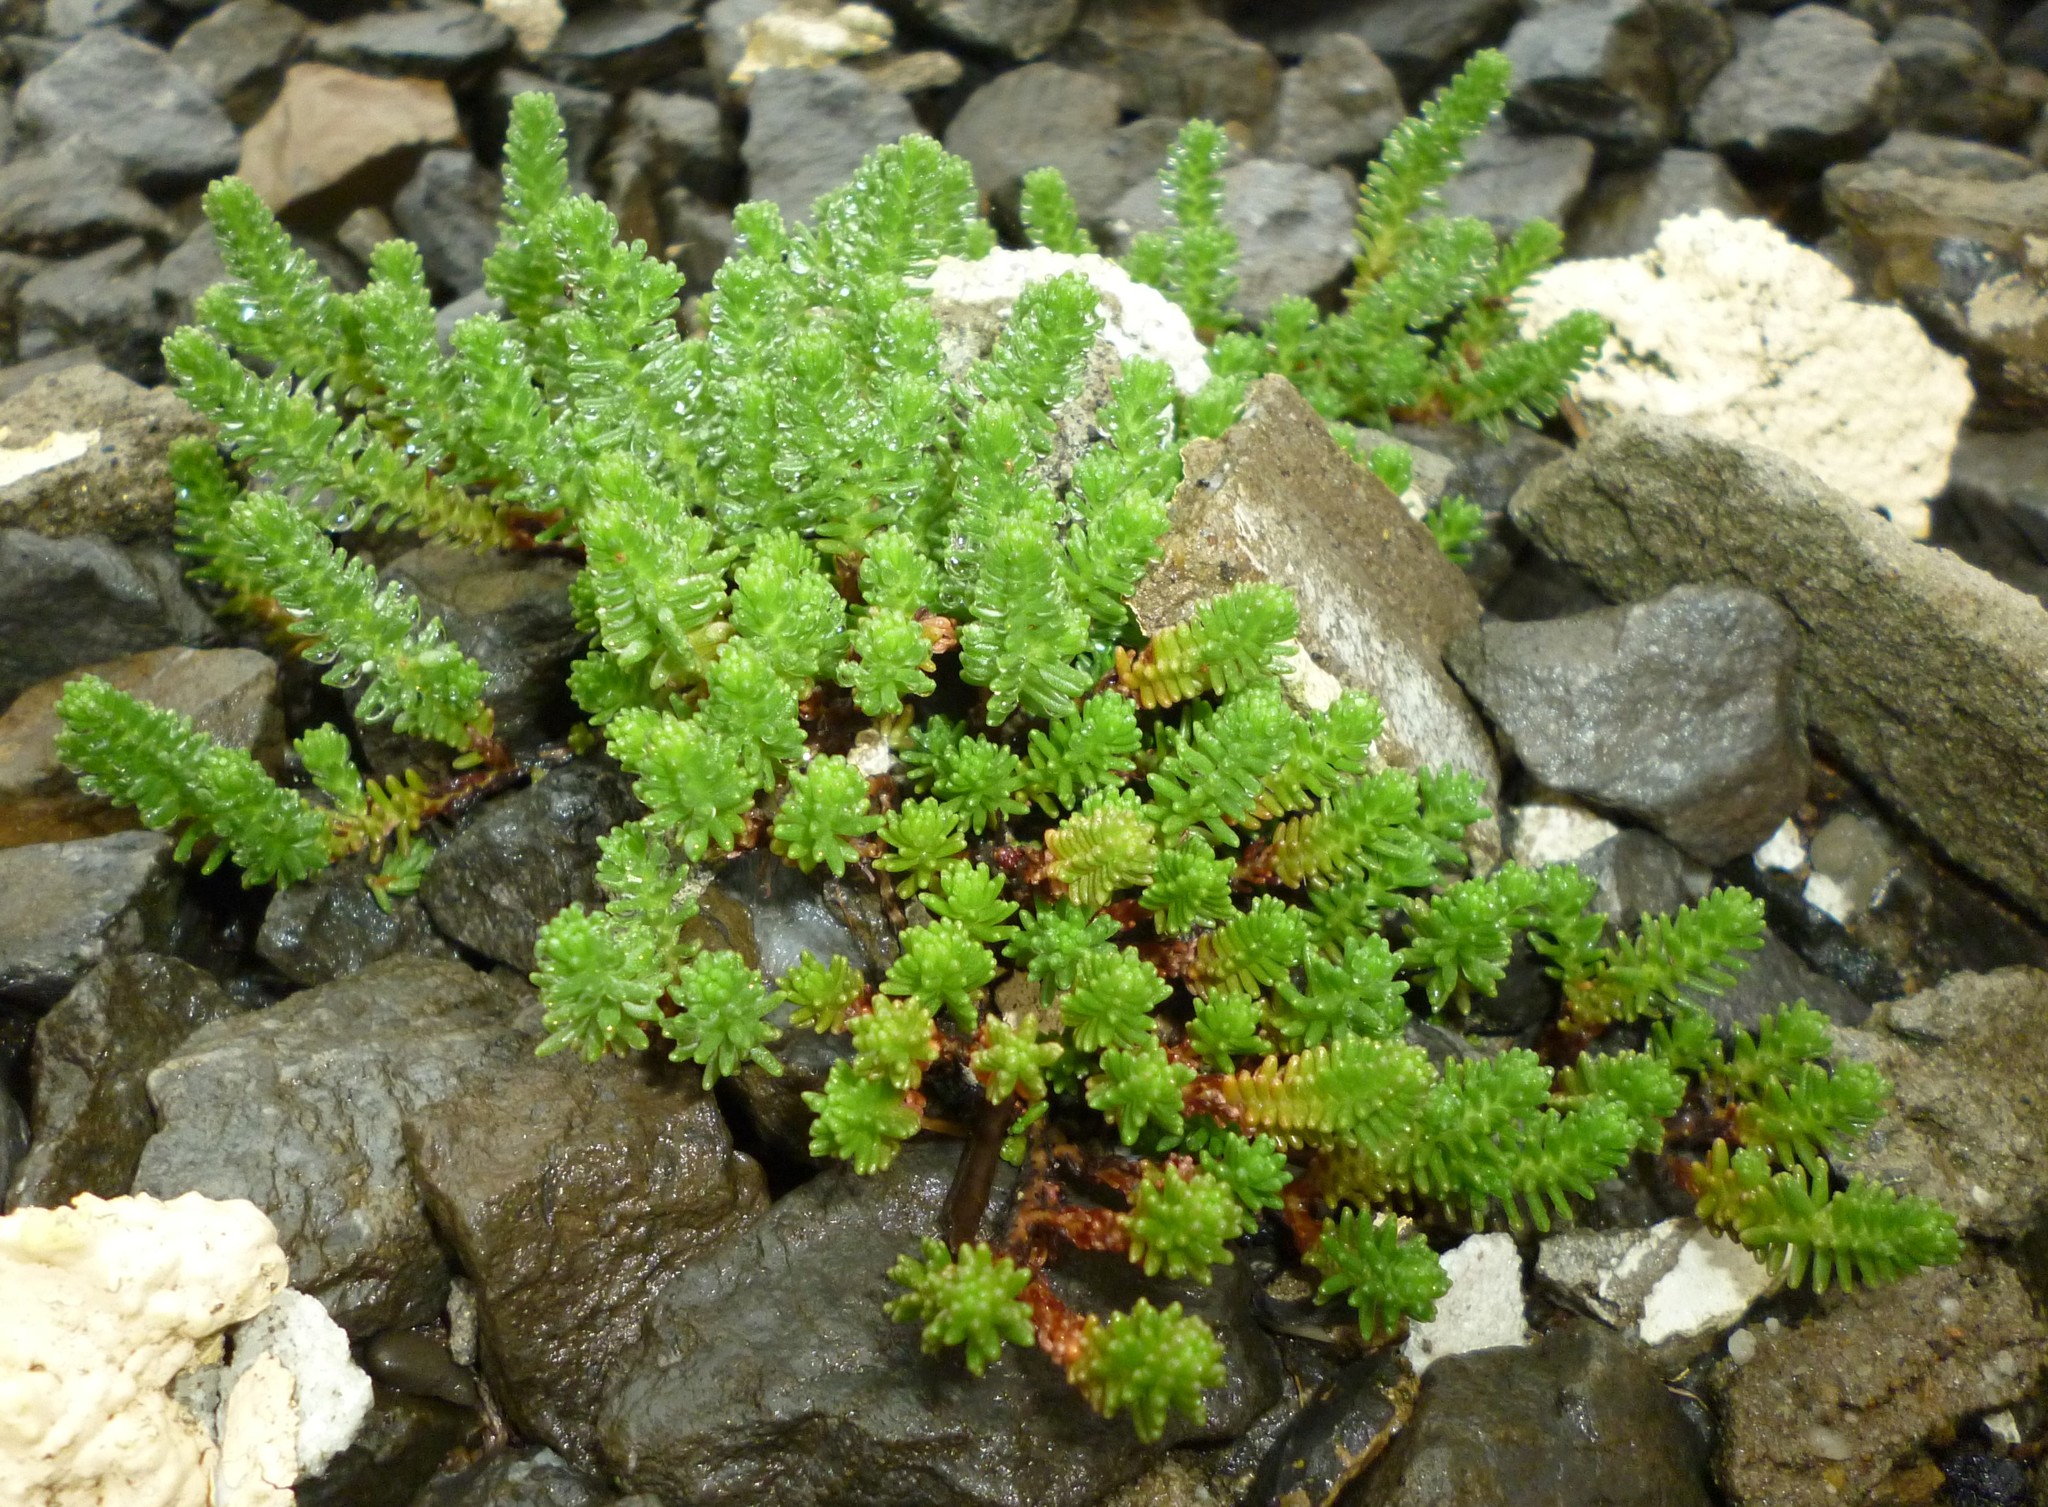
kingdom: Plantae
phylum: Tracheophyta
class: Magnoliopsida
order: Saxifragales
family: Crassulaceae
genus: Sedum
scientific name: Sedum sexangulare
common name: Tasteless stonecrop
